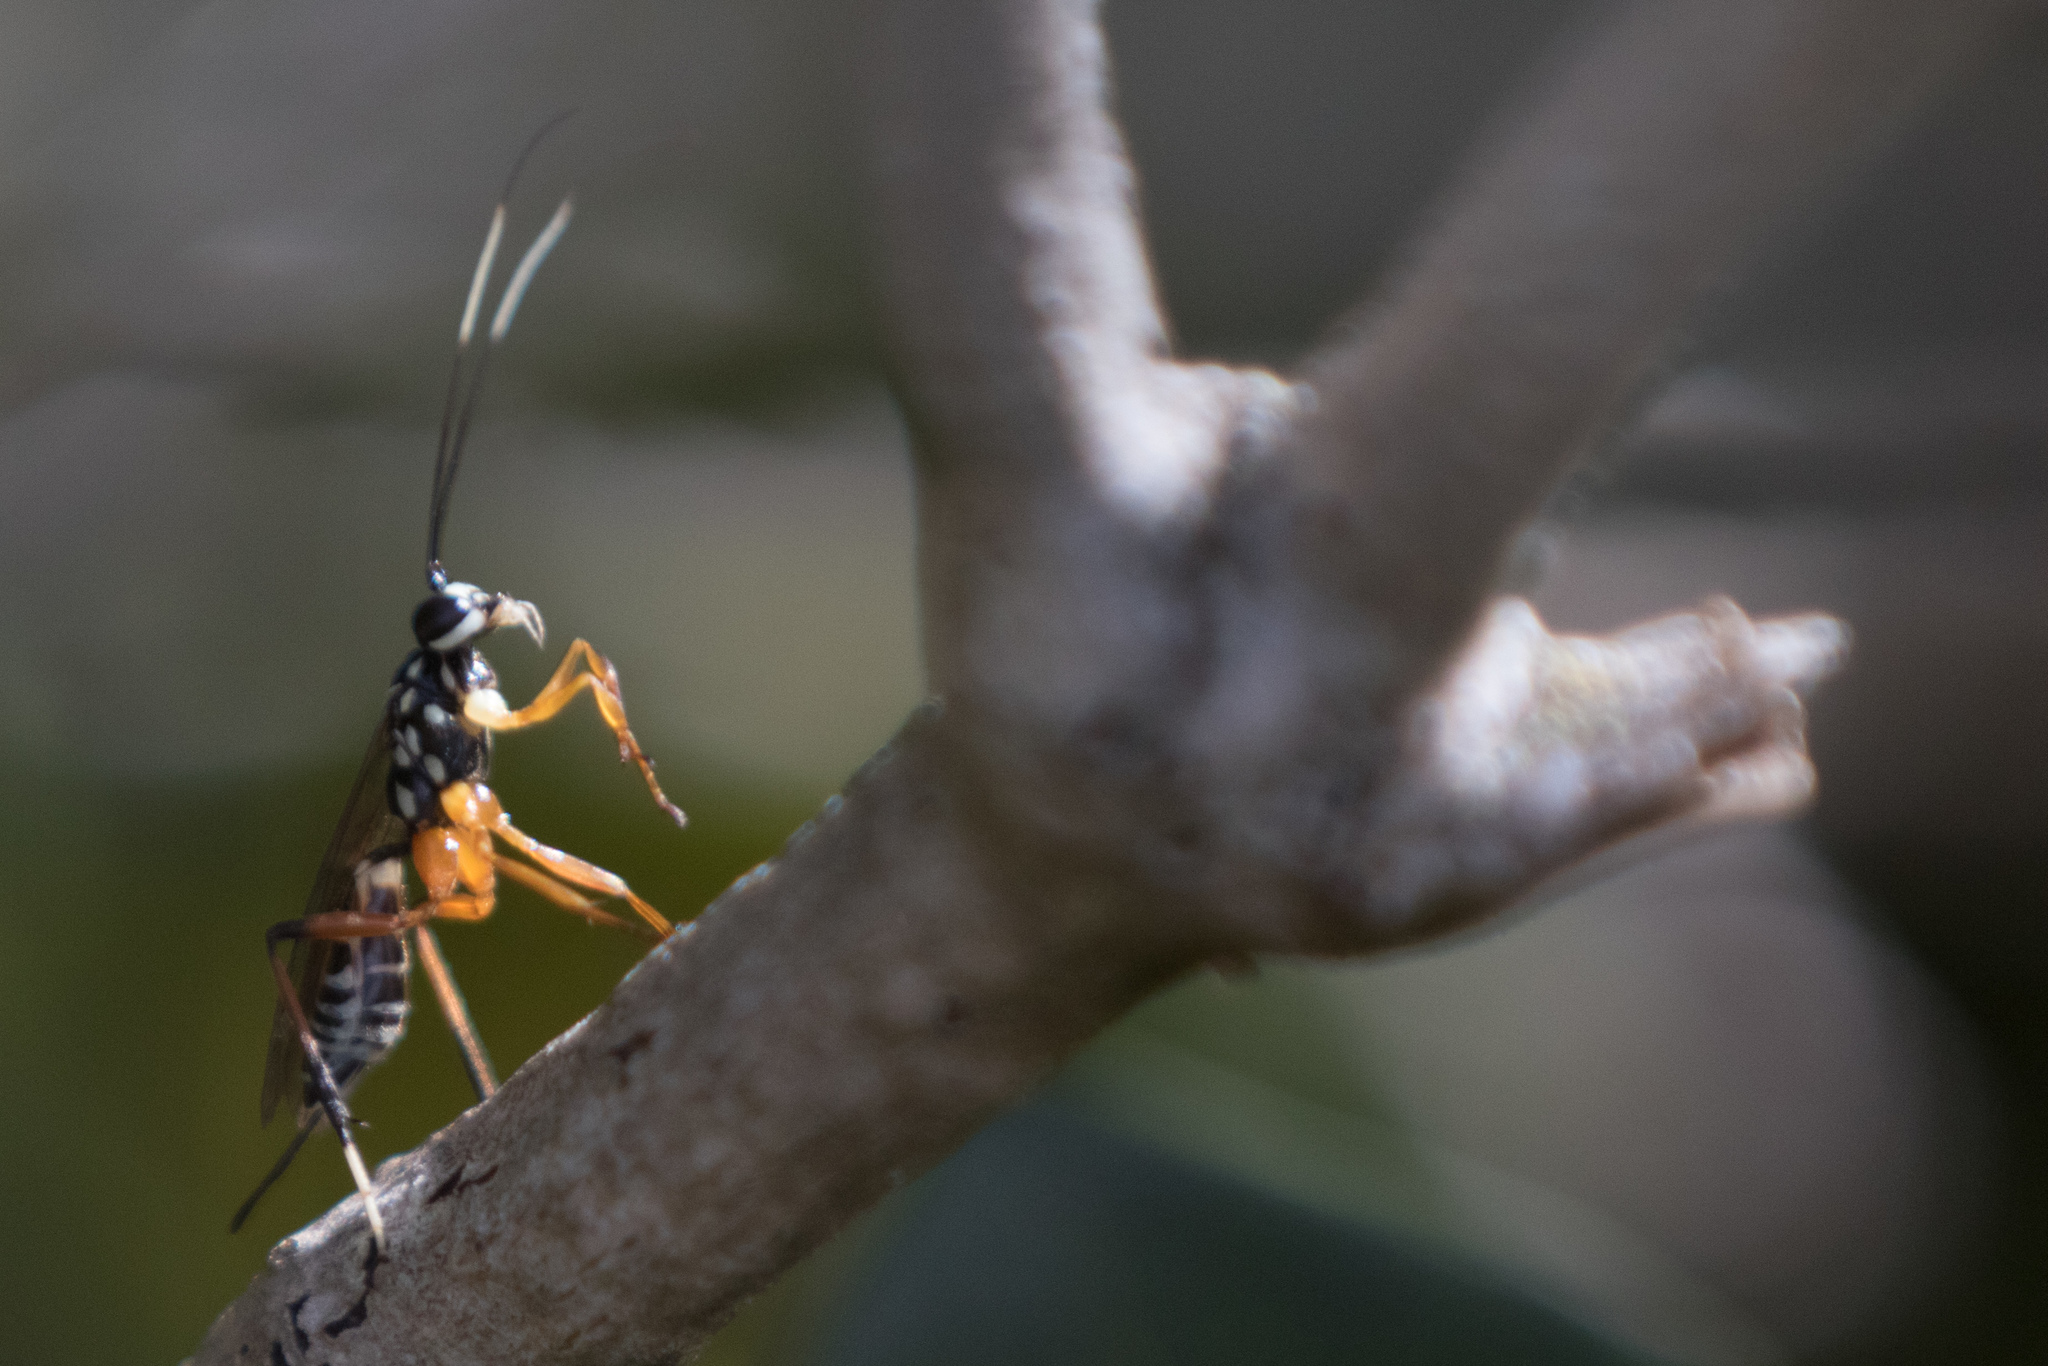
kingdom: Animalia
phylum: Arthropoda
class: Insecta
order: Hymenoptera
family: Ichneumonidae
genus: Xanthocryptus
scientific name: Xanthocryptus novozealandicus
